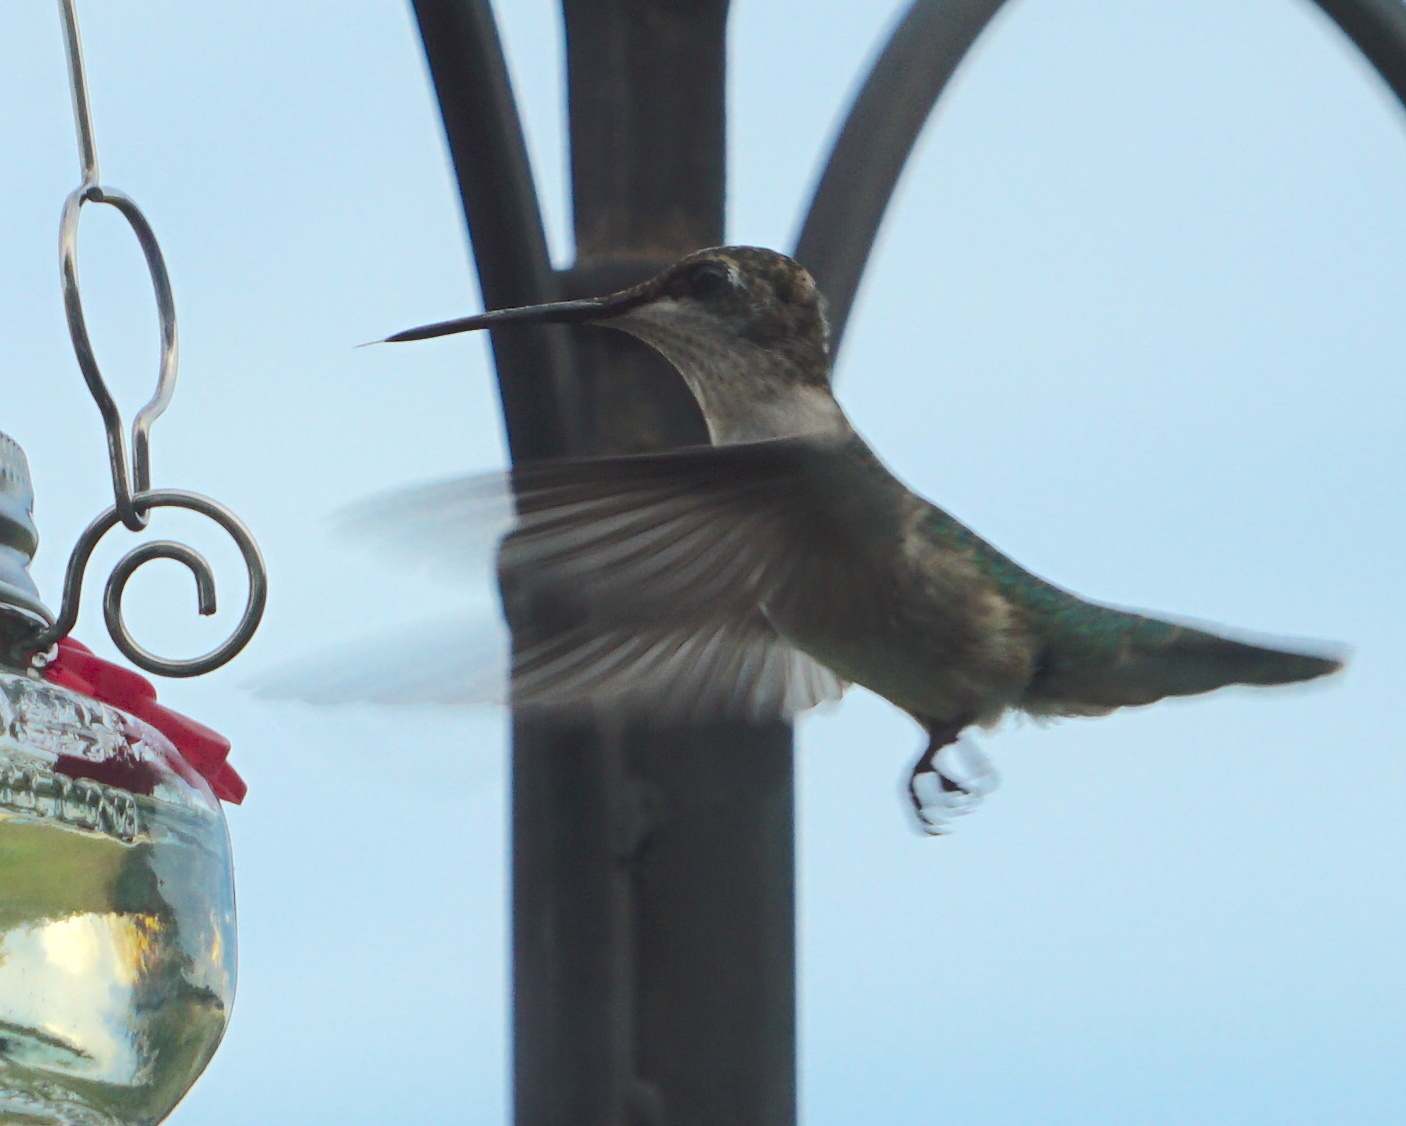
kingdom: Animalia
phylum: Chordata
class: Aves
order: Apodiformes
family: Trochilidae
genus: Archilochus
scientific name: Archilochus colubris
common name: Ruby-throated hummingbird
